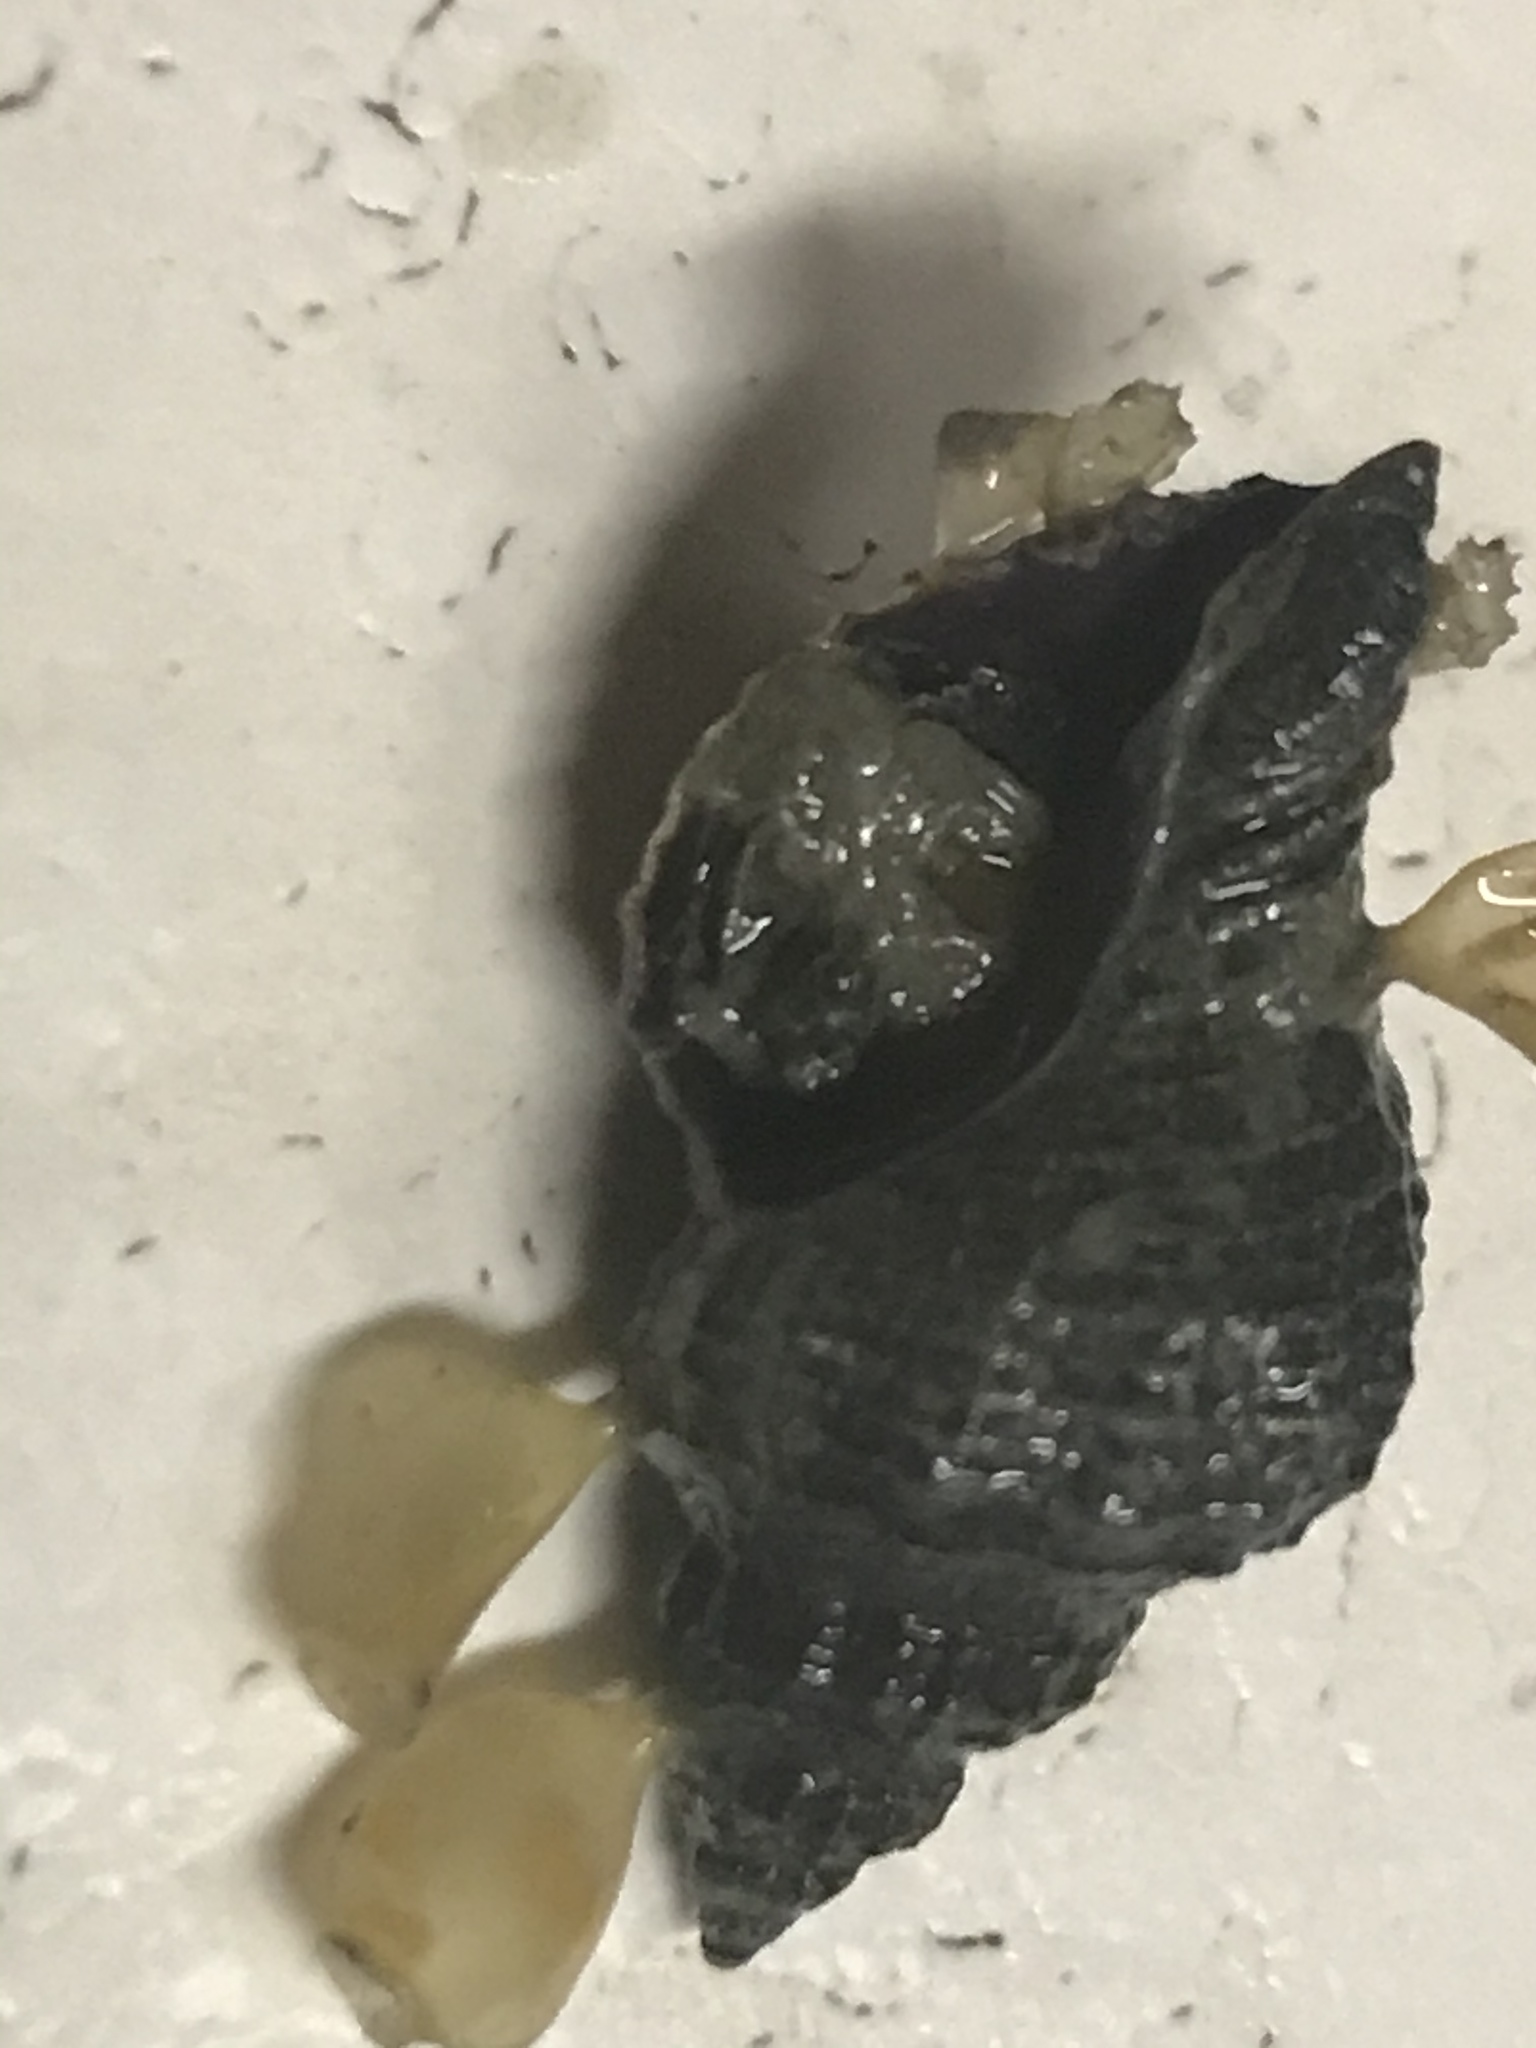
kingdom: Animalia
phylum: Mollusca
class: Gastropoda
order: Neogastropoda
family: Muricidae
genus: Urosalpinx
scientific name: Urosalpinx cinerea
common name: American sting winkle
